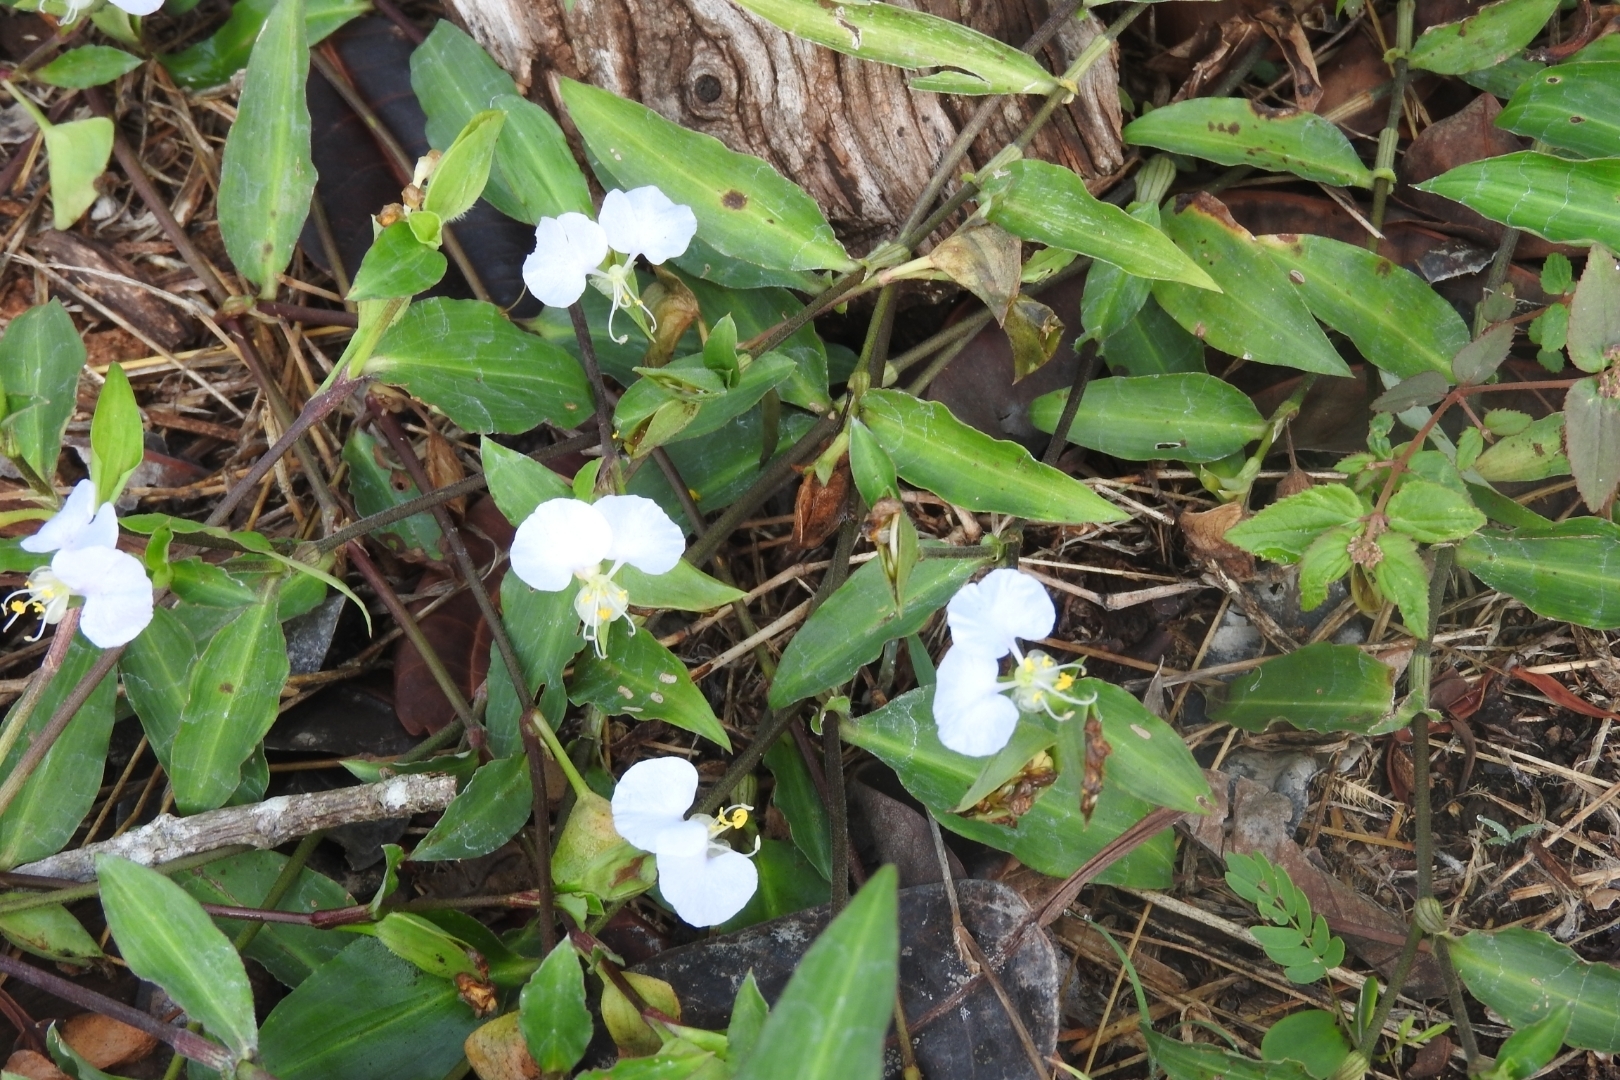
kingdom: Plantae
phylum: Tracheophyta
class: Liliopsida
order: Commelinales
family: Commelinaceae
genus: Commelina
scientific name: Commelina erecta
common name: Blousel blommetjie
